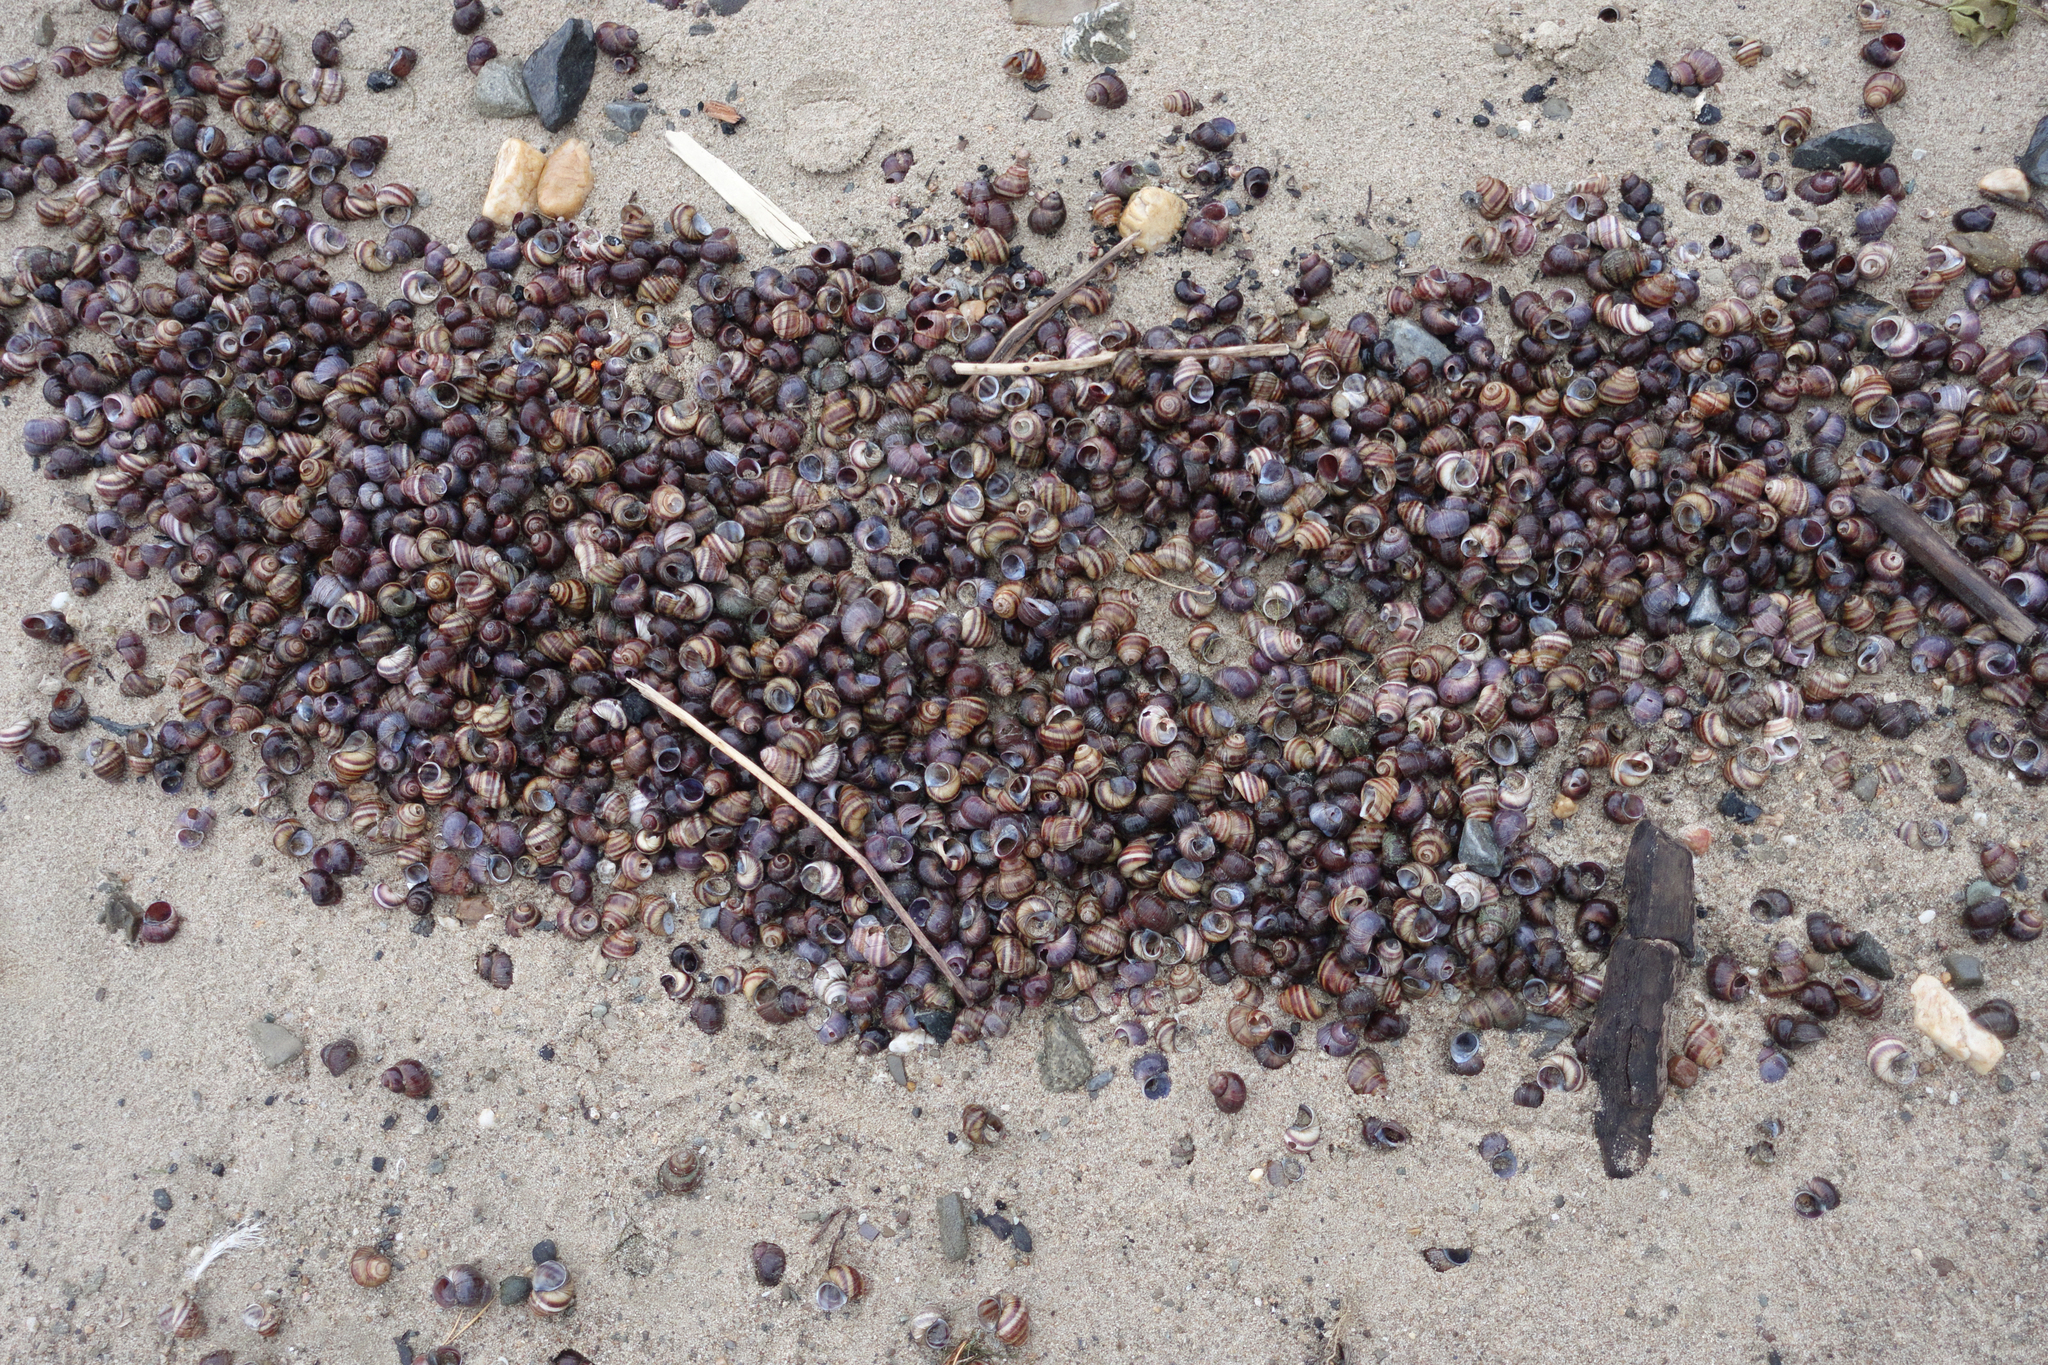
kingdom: Animalia
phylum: Mollusca
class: Gastropoda
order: Architaenioglossa
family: Viviparidae
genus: Viviparus
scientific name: Viviparus viviparus
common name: River snail
